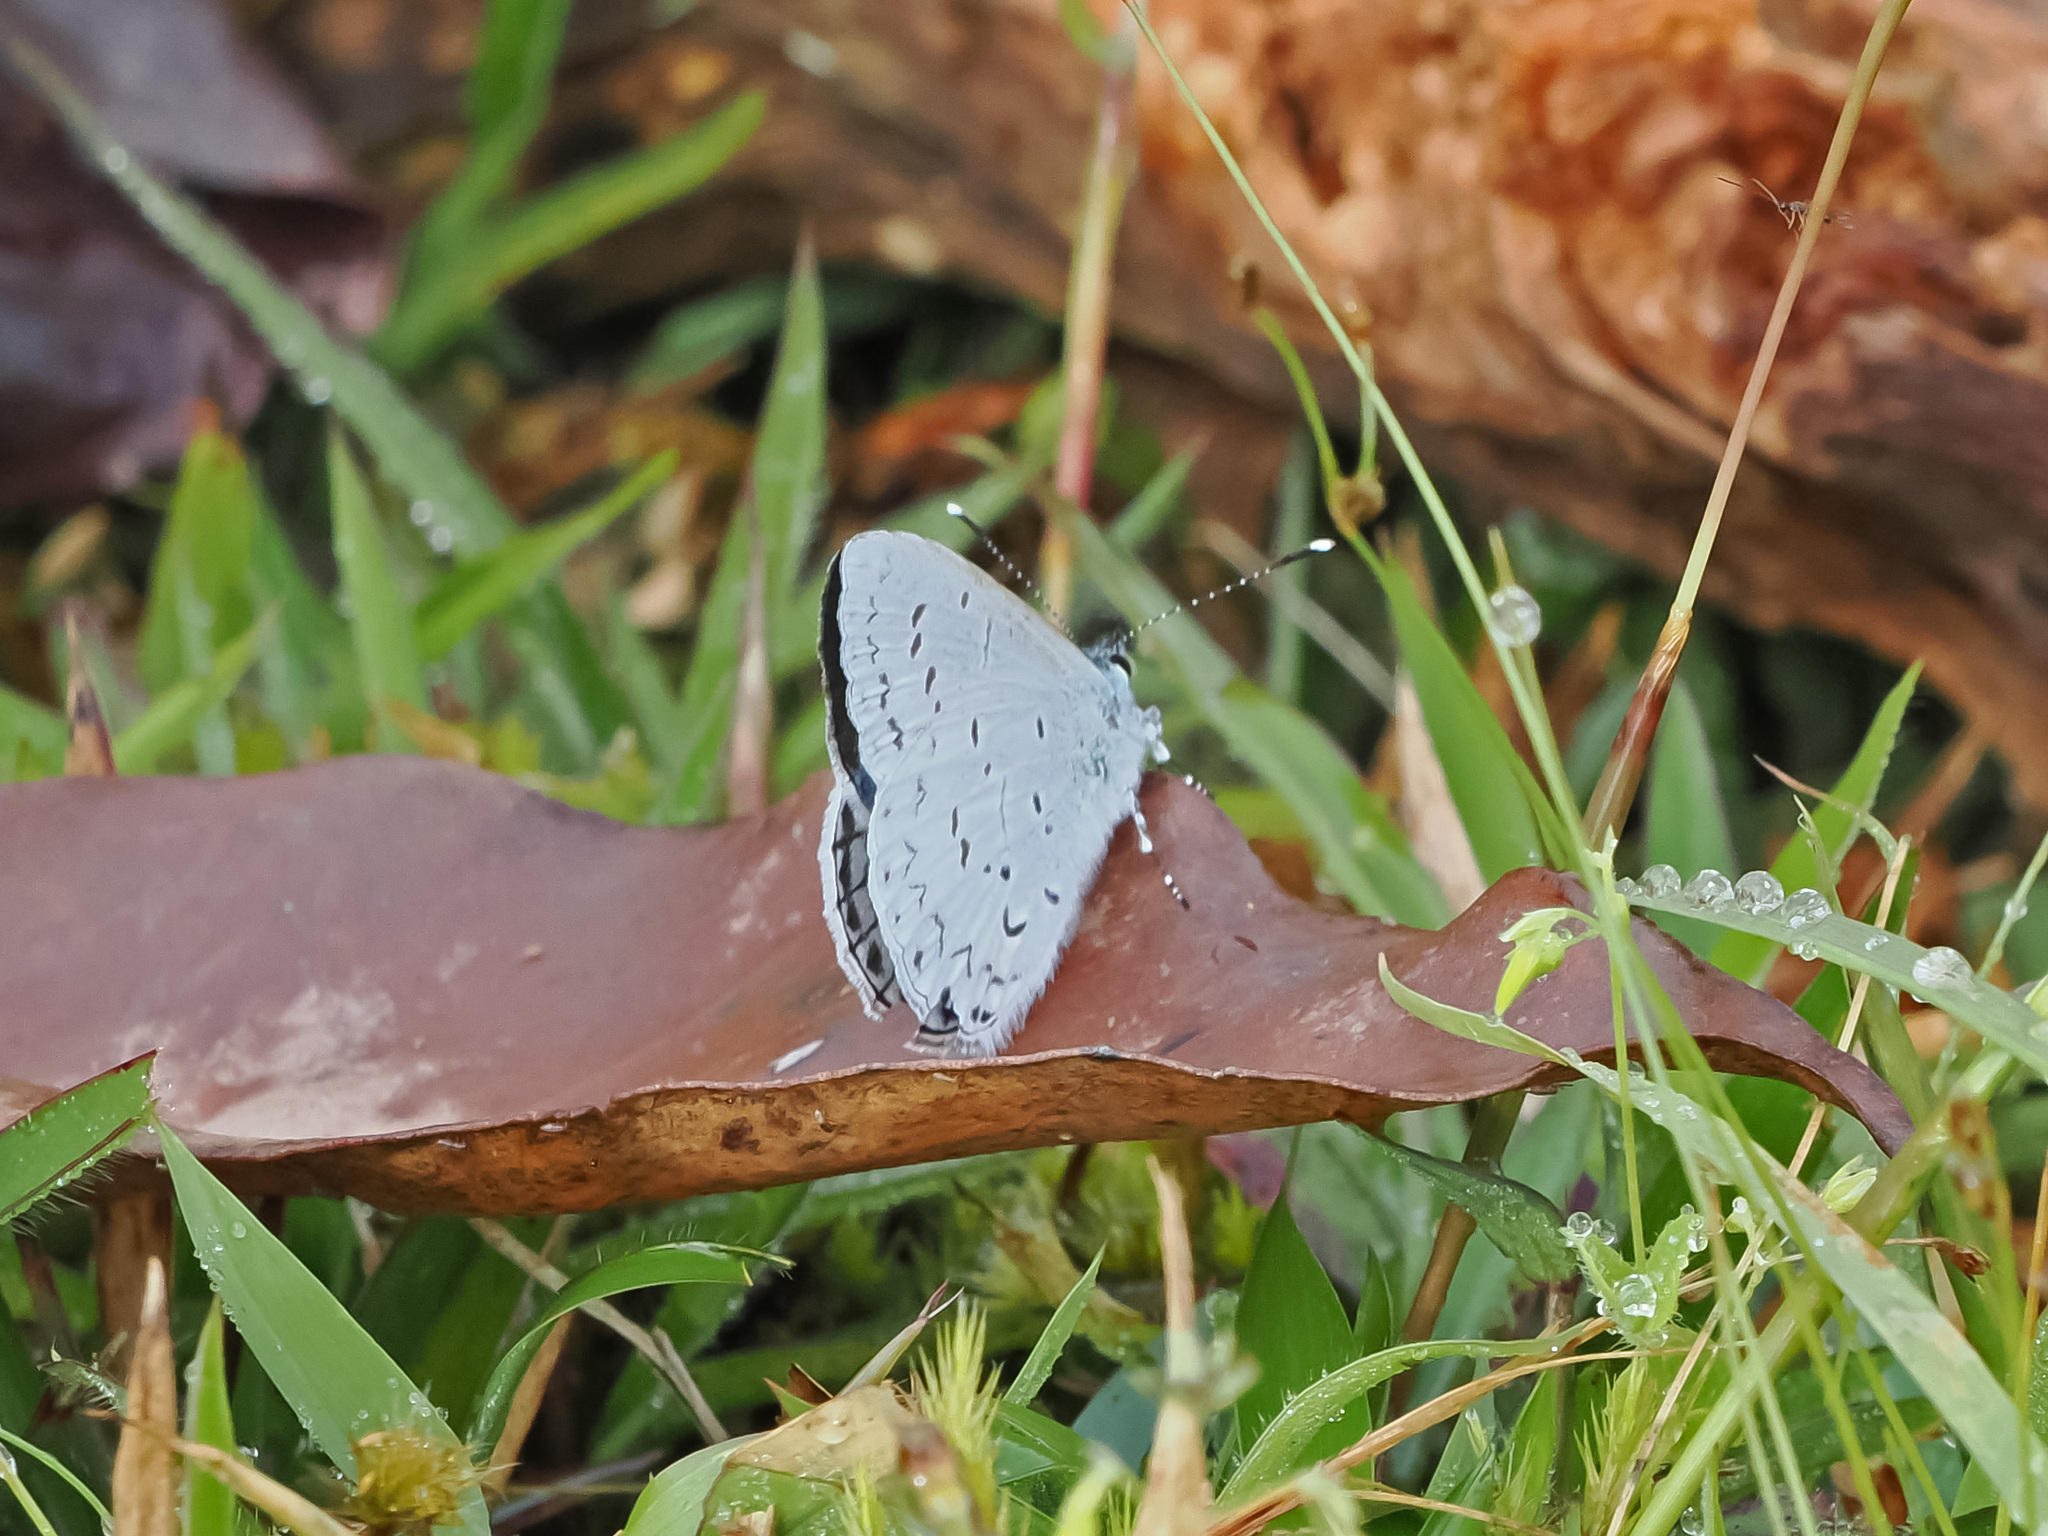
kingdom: Animalia
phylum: Arthropoda
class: Insecta
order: Lepidoptera
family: Lycaenidae
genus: Uranobothria
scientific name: Uranobothria celebica
